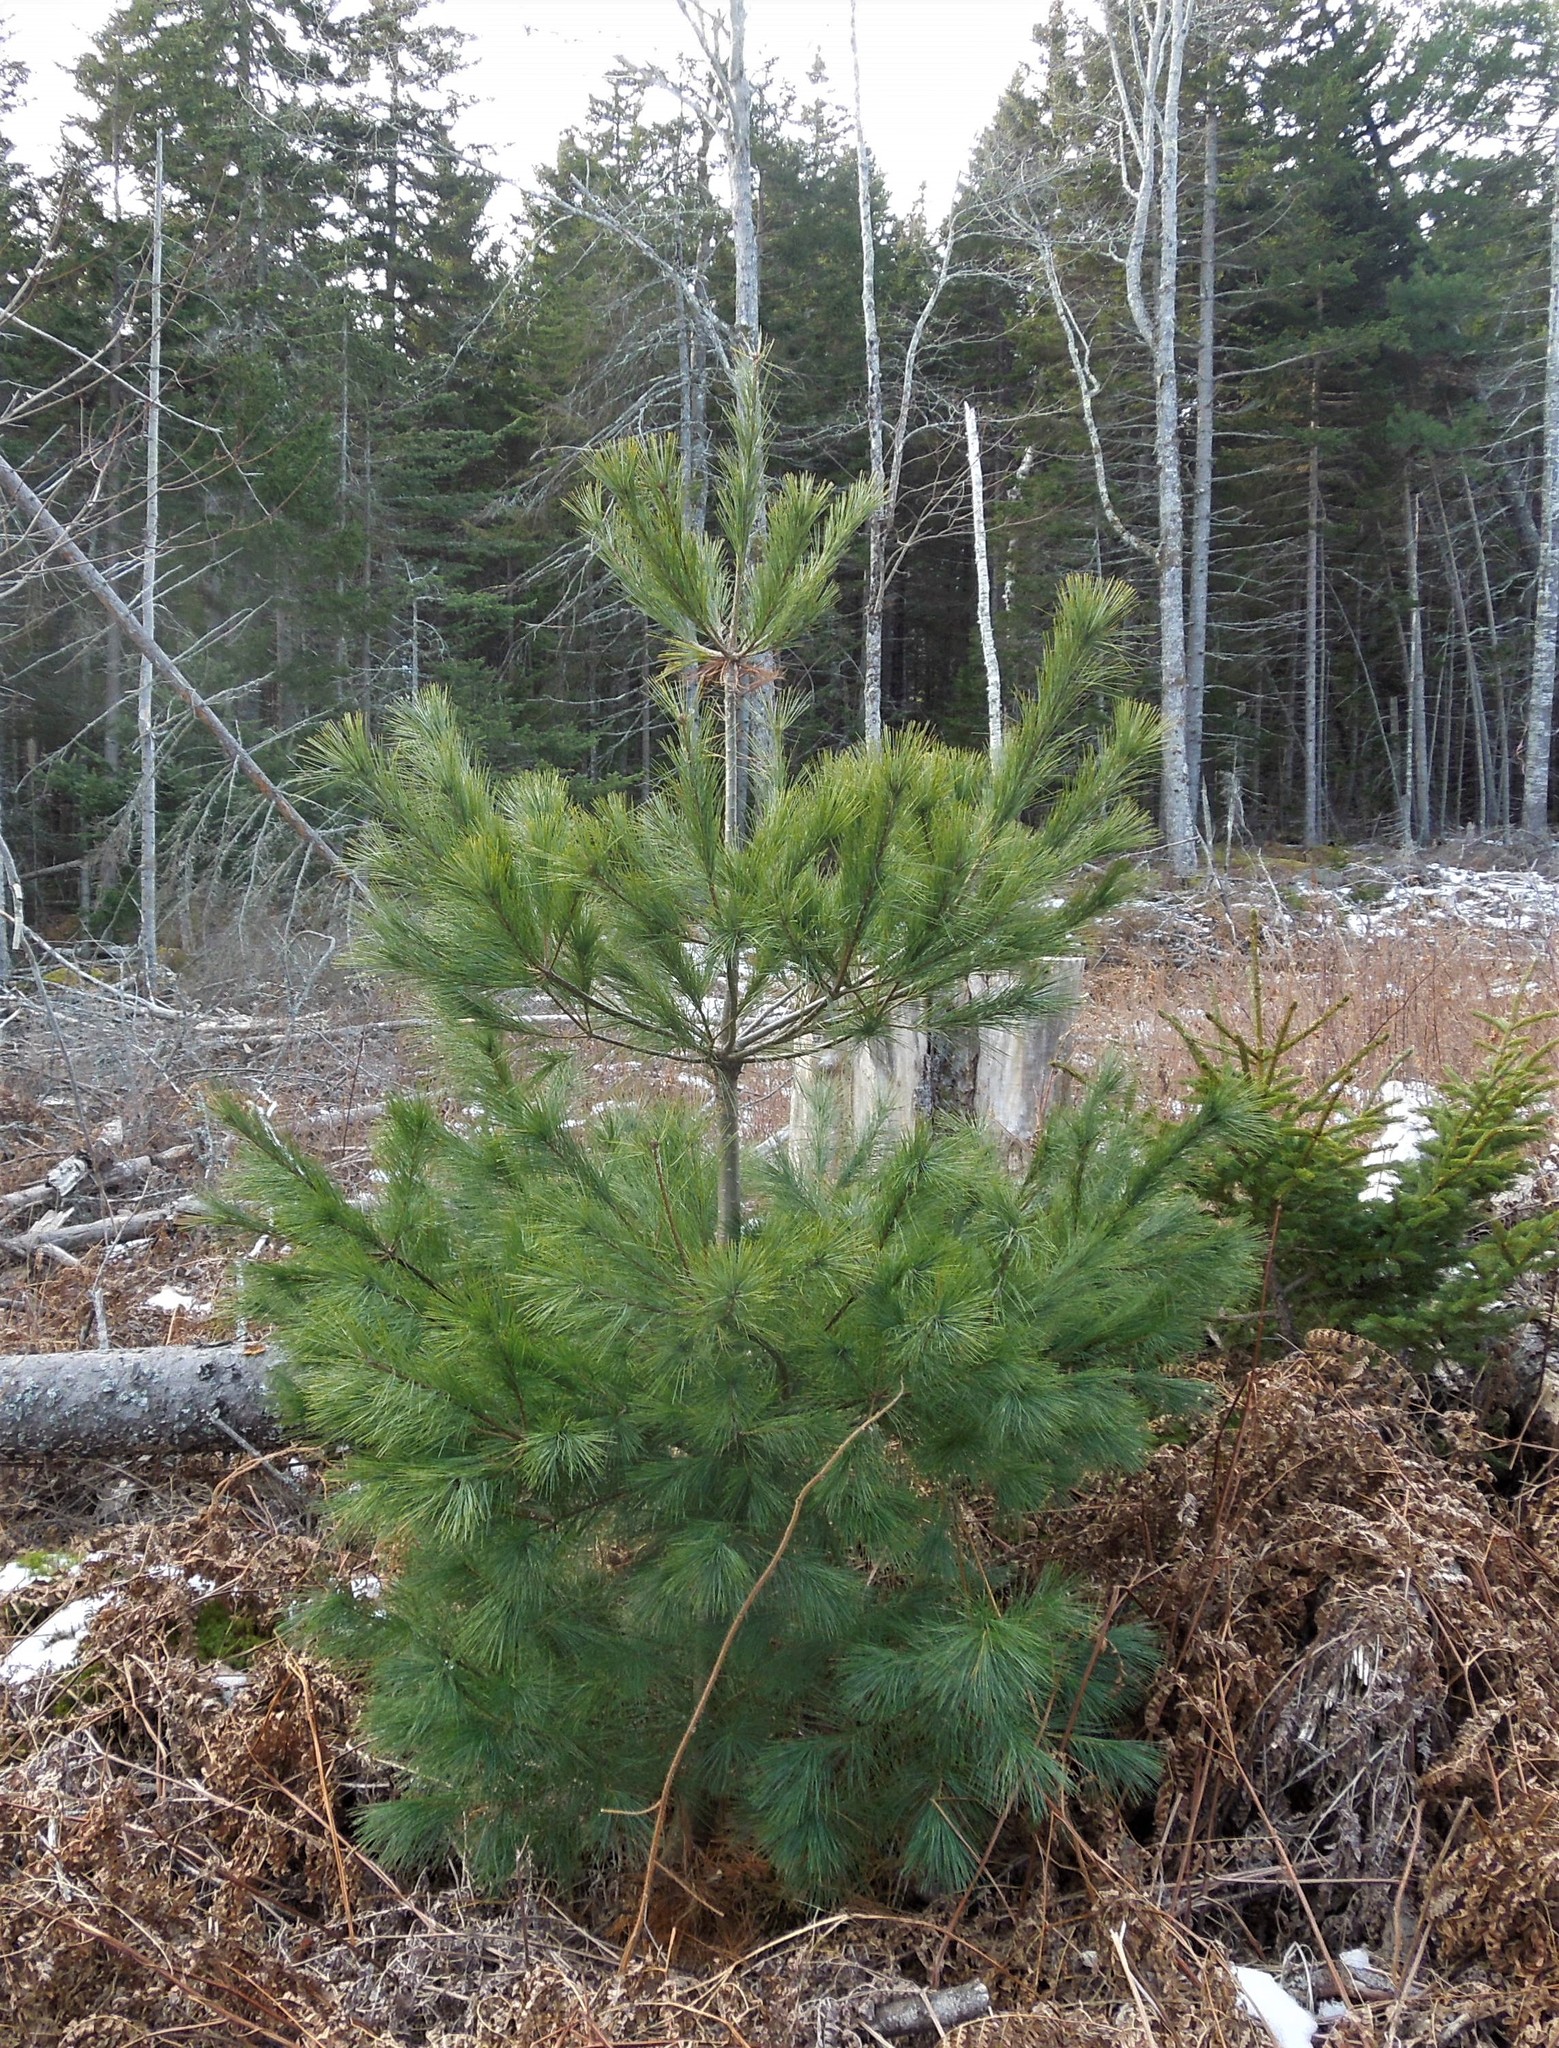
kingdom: Plantae
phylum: Tracheophyta
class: Pinopsida
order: Pinales
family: Pinaceae
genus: Pinus
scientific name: Pinus strobus
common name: Weymouth pine
